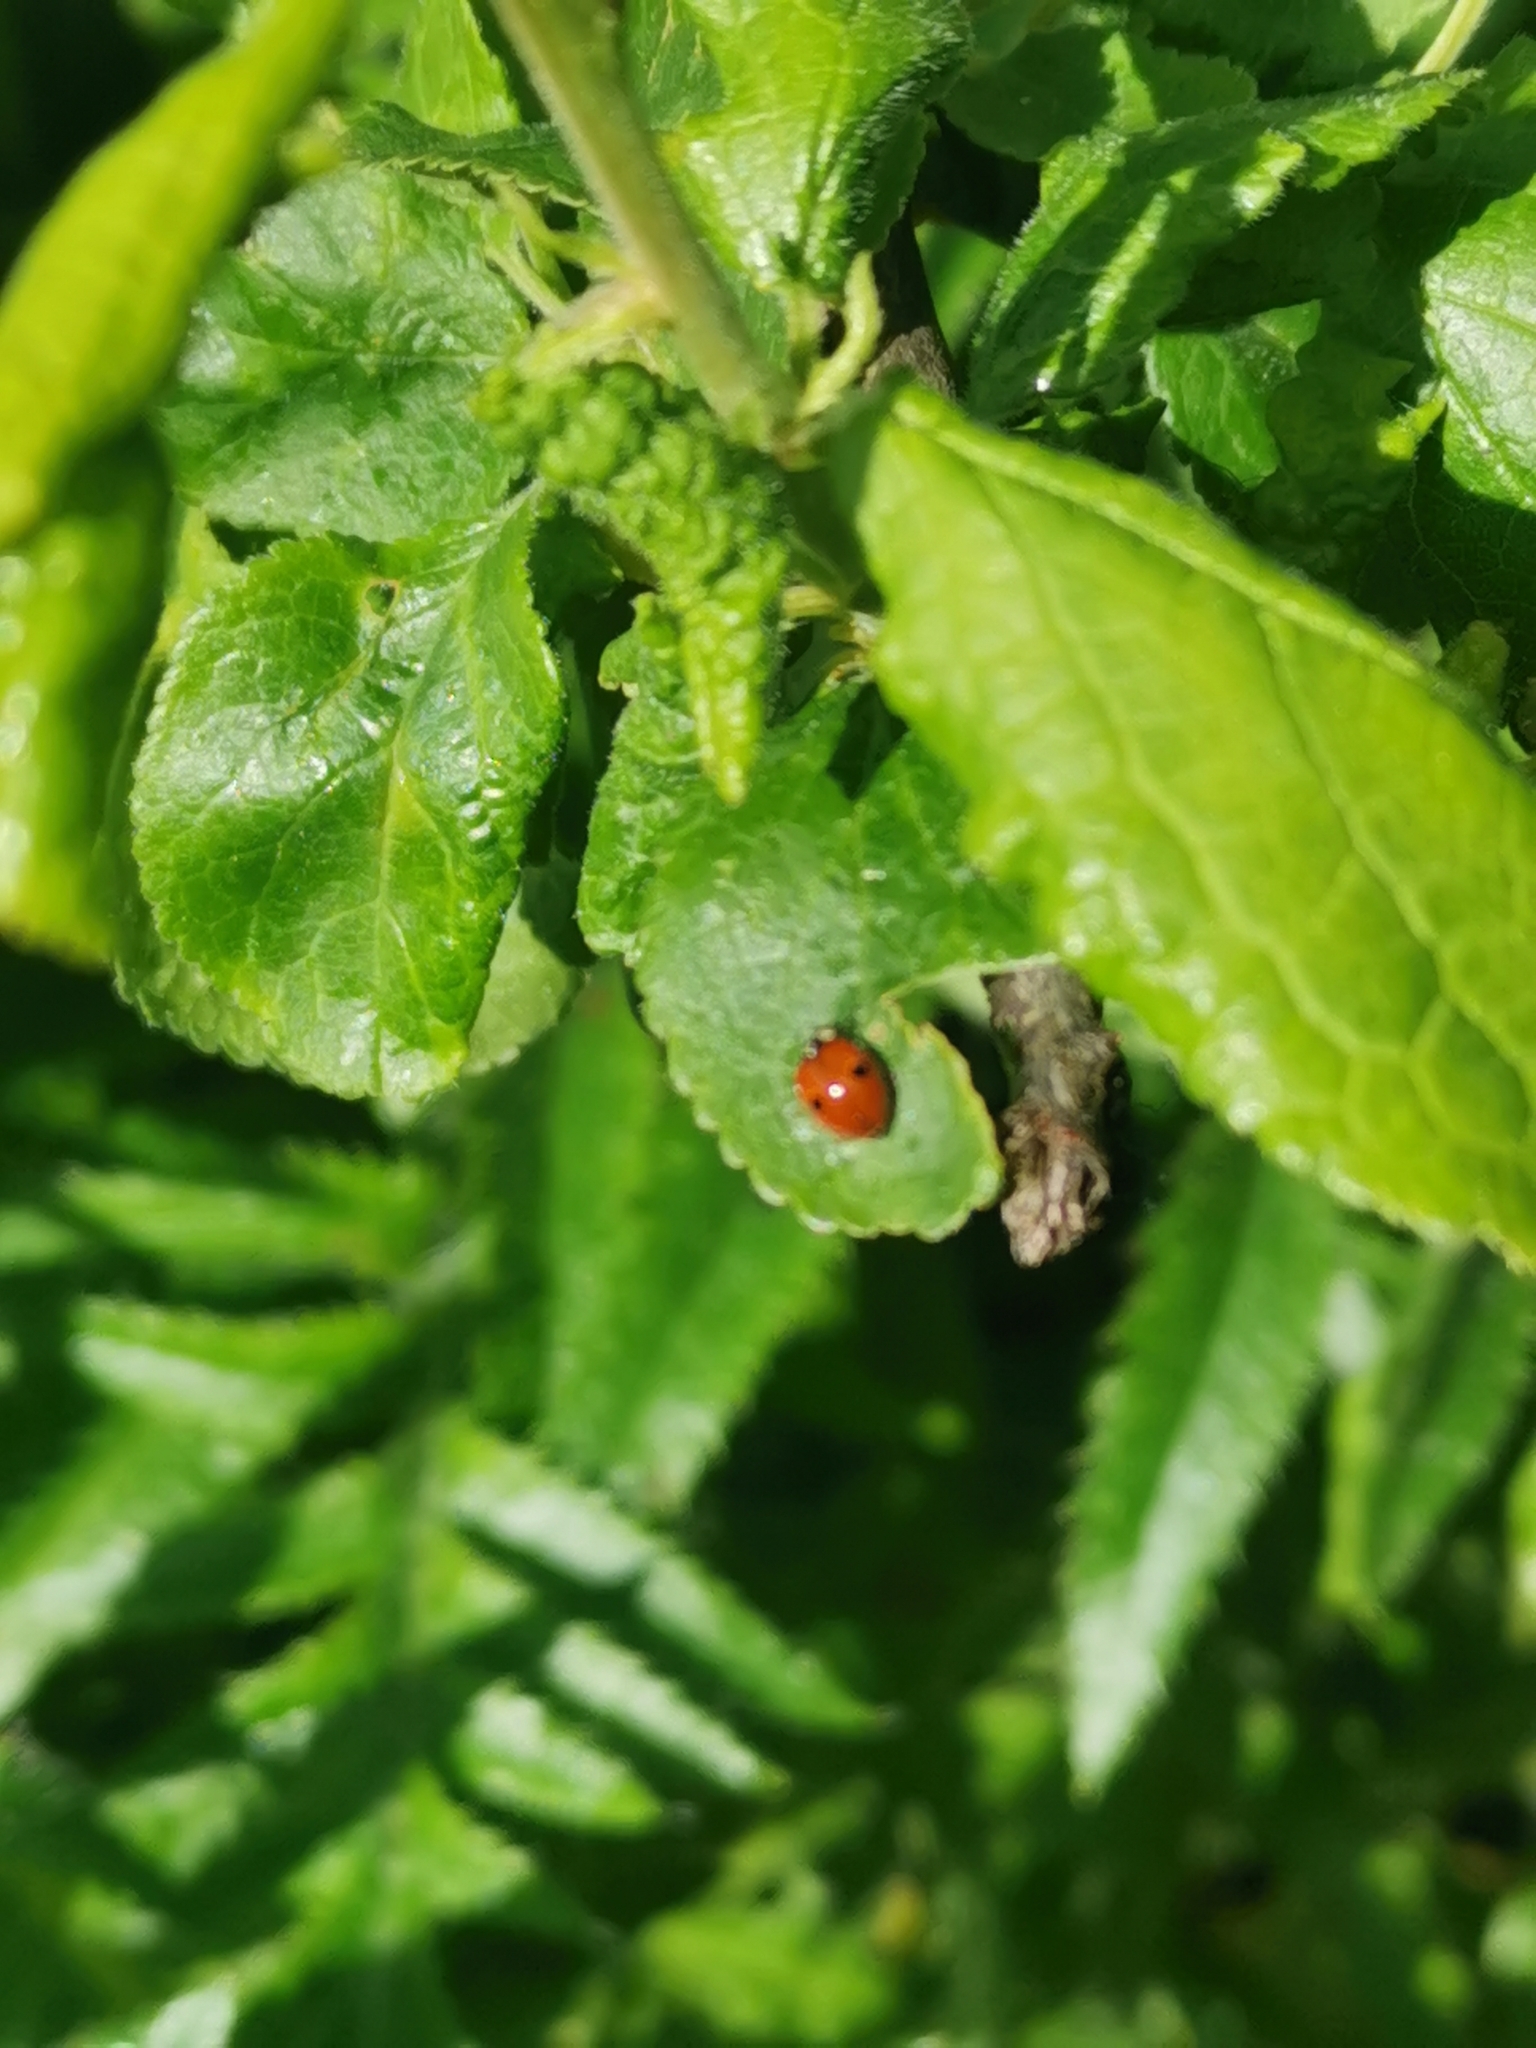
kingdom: Animalia
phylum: Arthropoda
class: Insecta
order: Coleoptera
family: Coccinellidae
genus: Adalia
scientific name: Adalia bipunctata
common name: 2-spot ladybird
